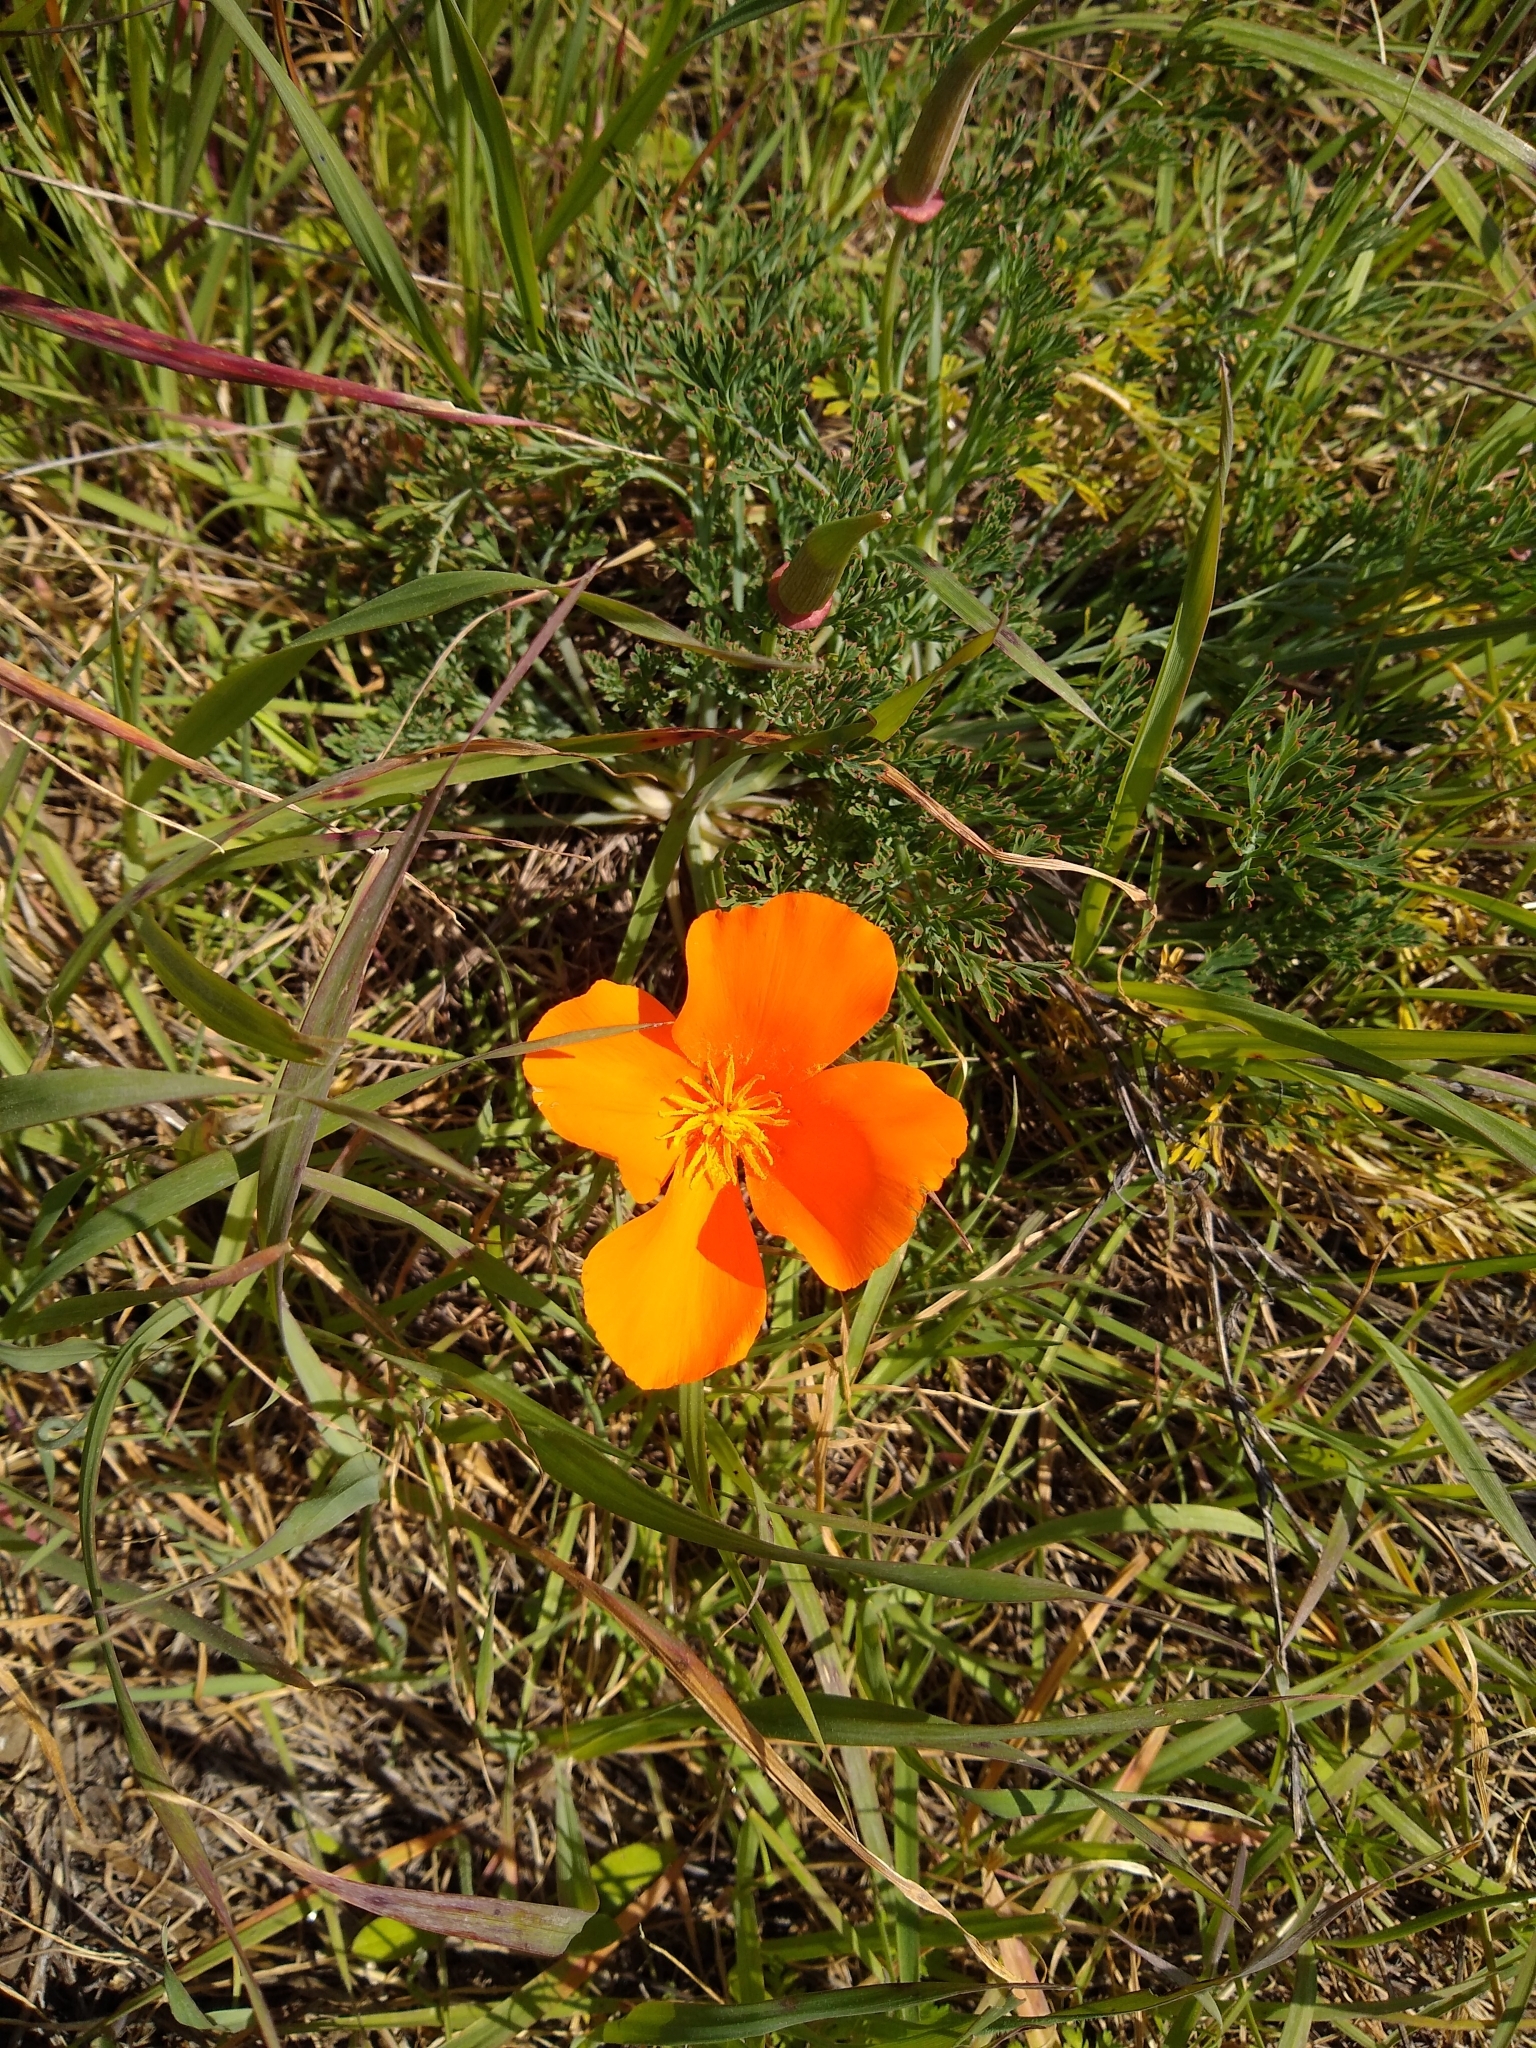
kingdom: Plantae
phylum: Tracheophyta
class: Magnoliopsida
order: Ranunculales
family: Papaveraceae
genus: Eschscholzia
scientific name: Eschscholzia californica
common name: California poppy
